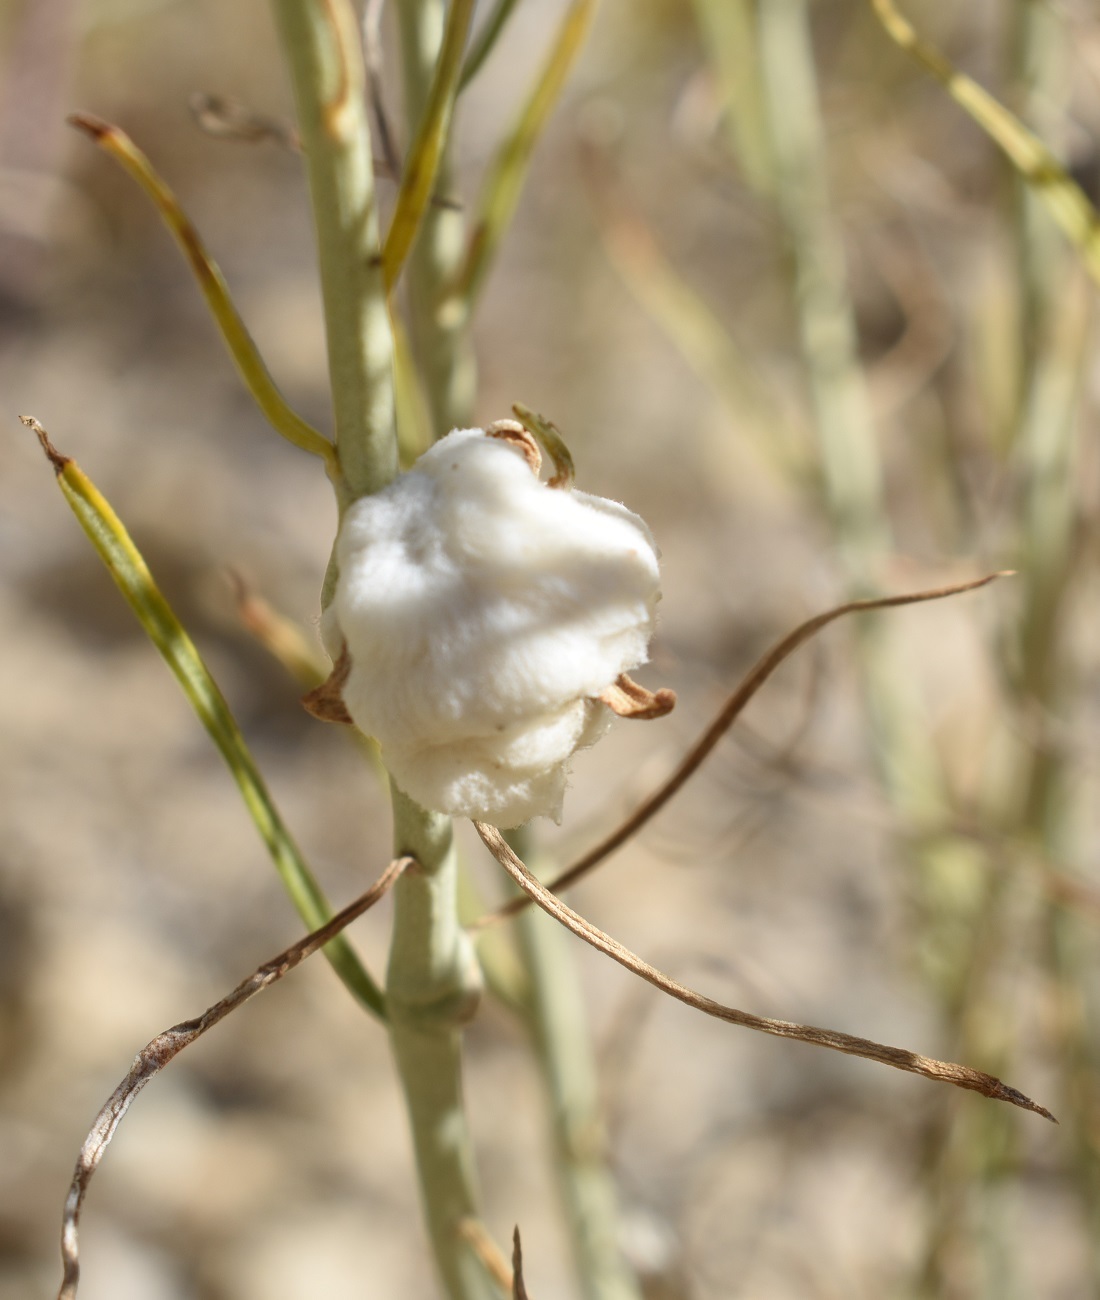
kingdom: Animalia
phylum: Arthropoda
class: Insecta
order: Diptera
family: Tephritidae
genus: Aciurina
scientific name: Aciurina bigeloviae
